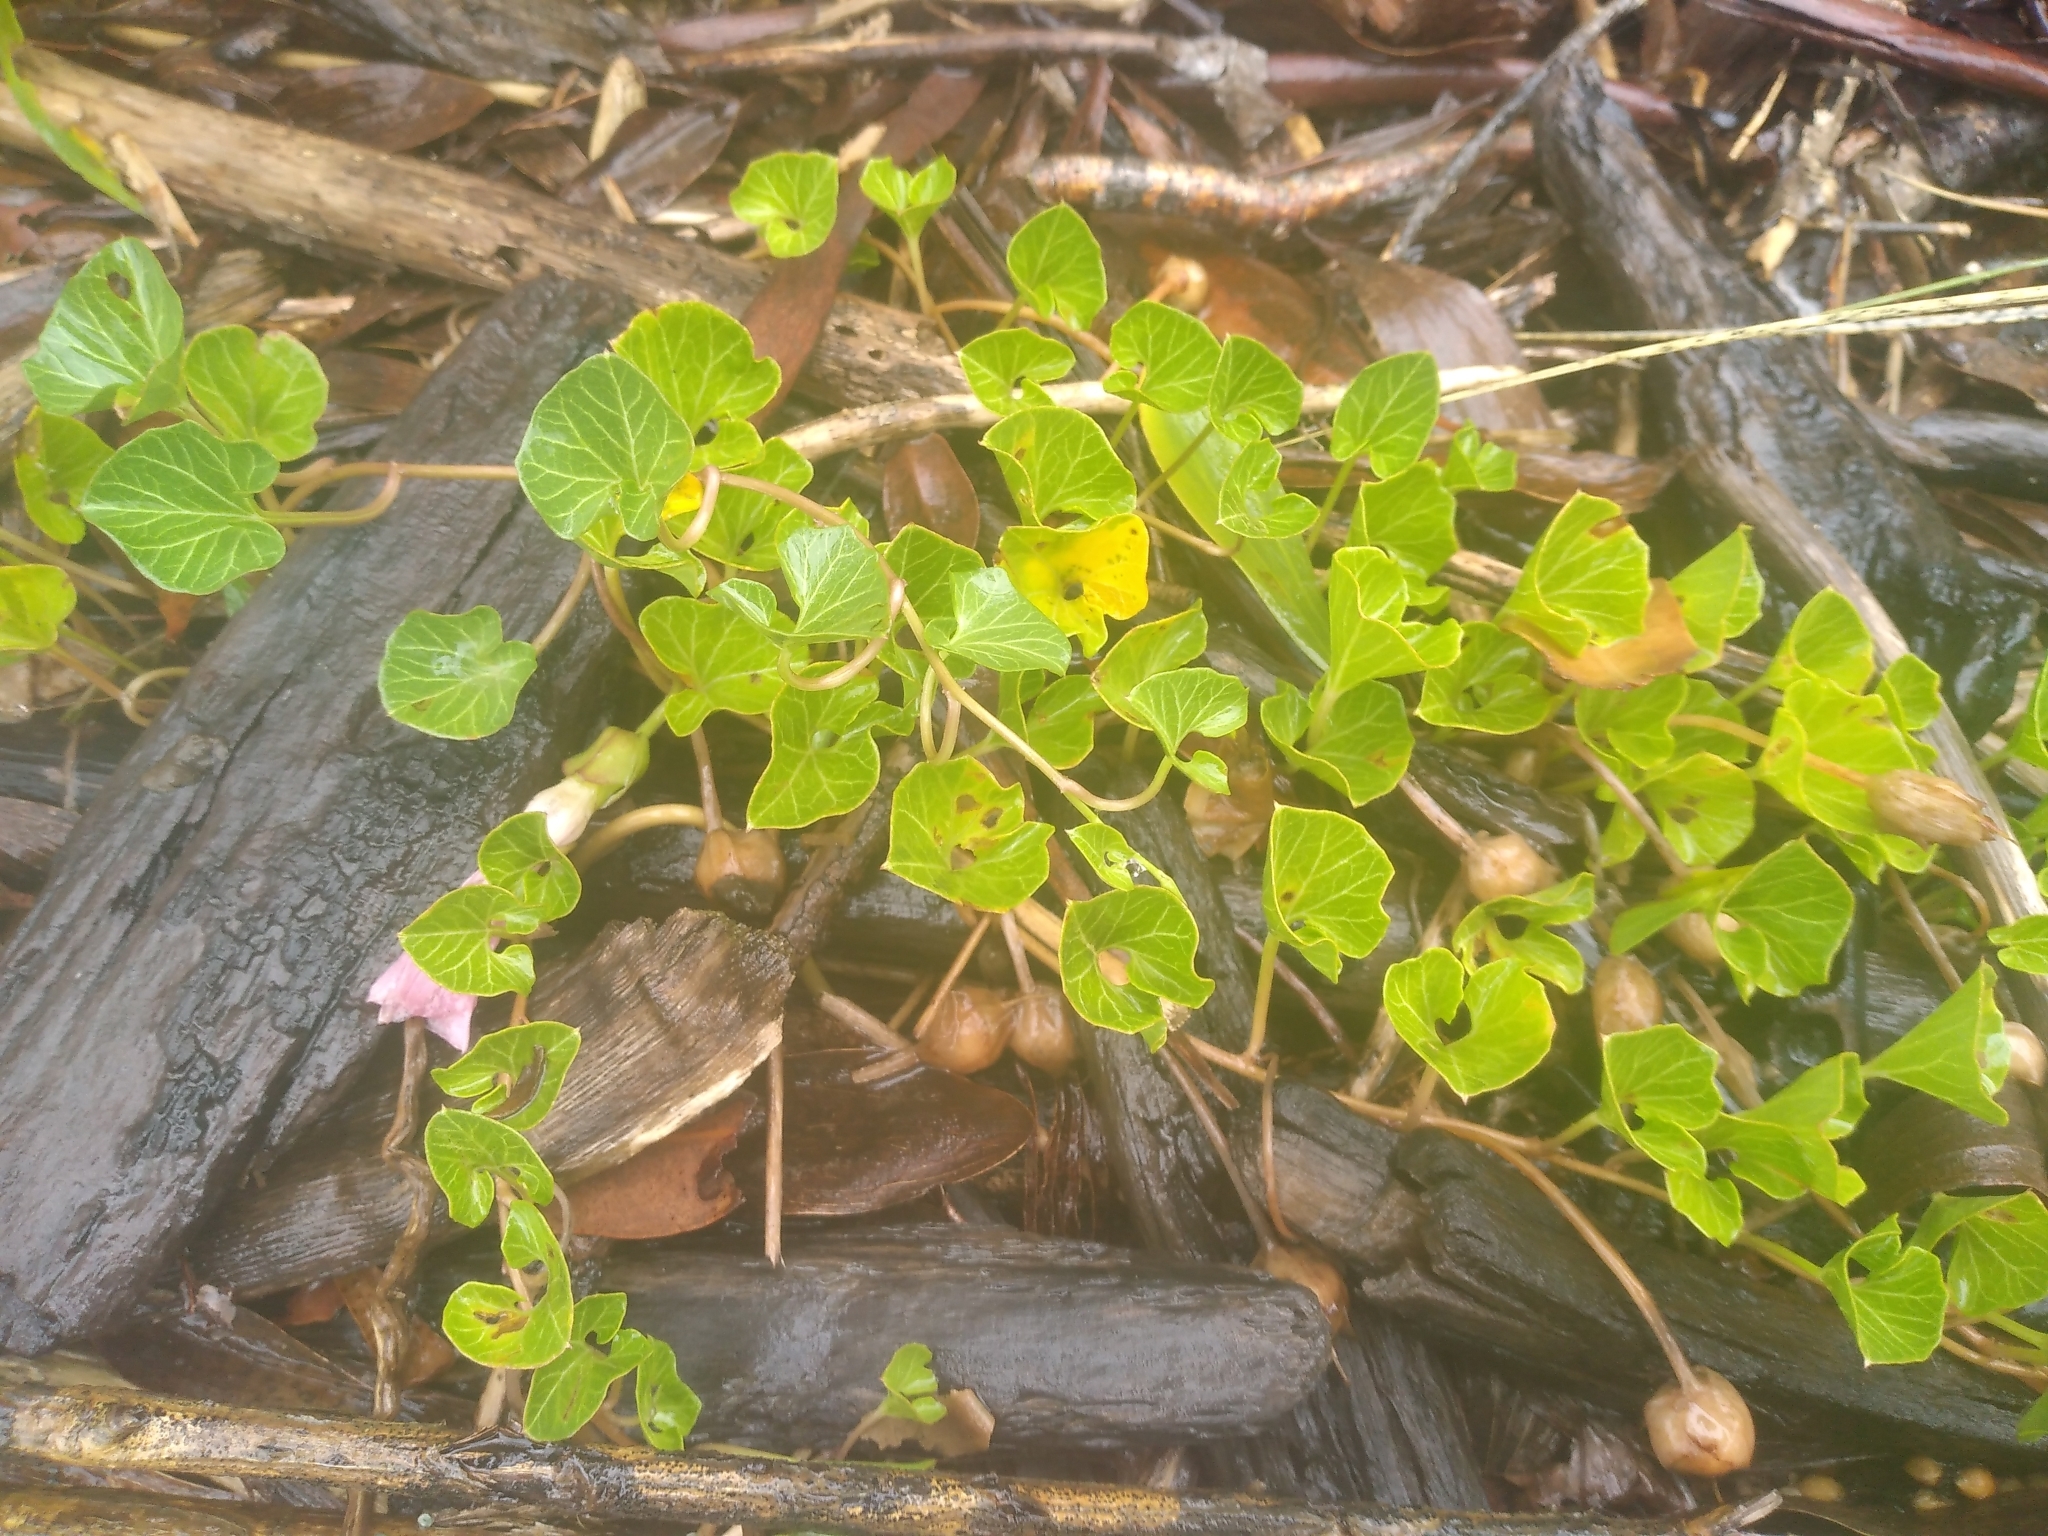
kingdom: Plantae
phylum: Tracheophyta
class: Magnoliopsida
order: Solanales
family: Convolvulaceae
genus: Calystegia
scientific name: Calystegia soldanella
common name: Sea bindweed
